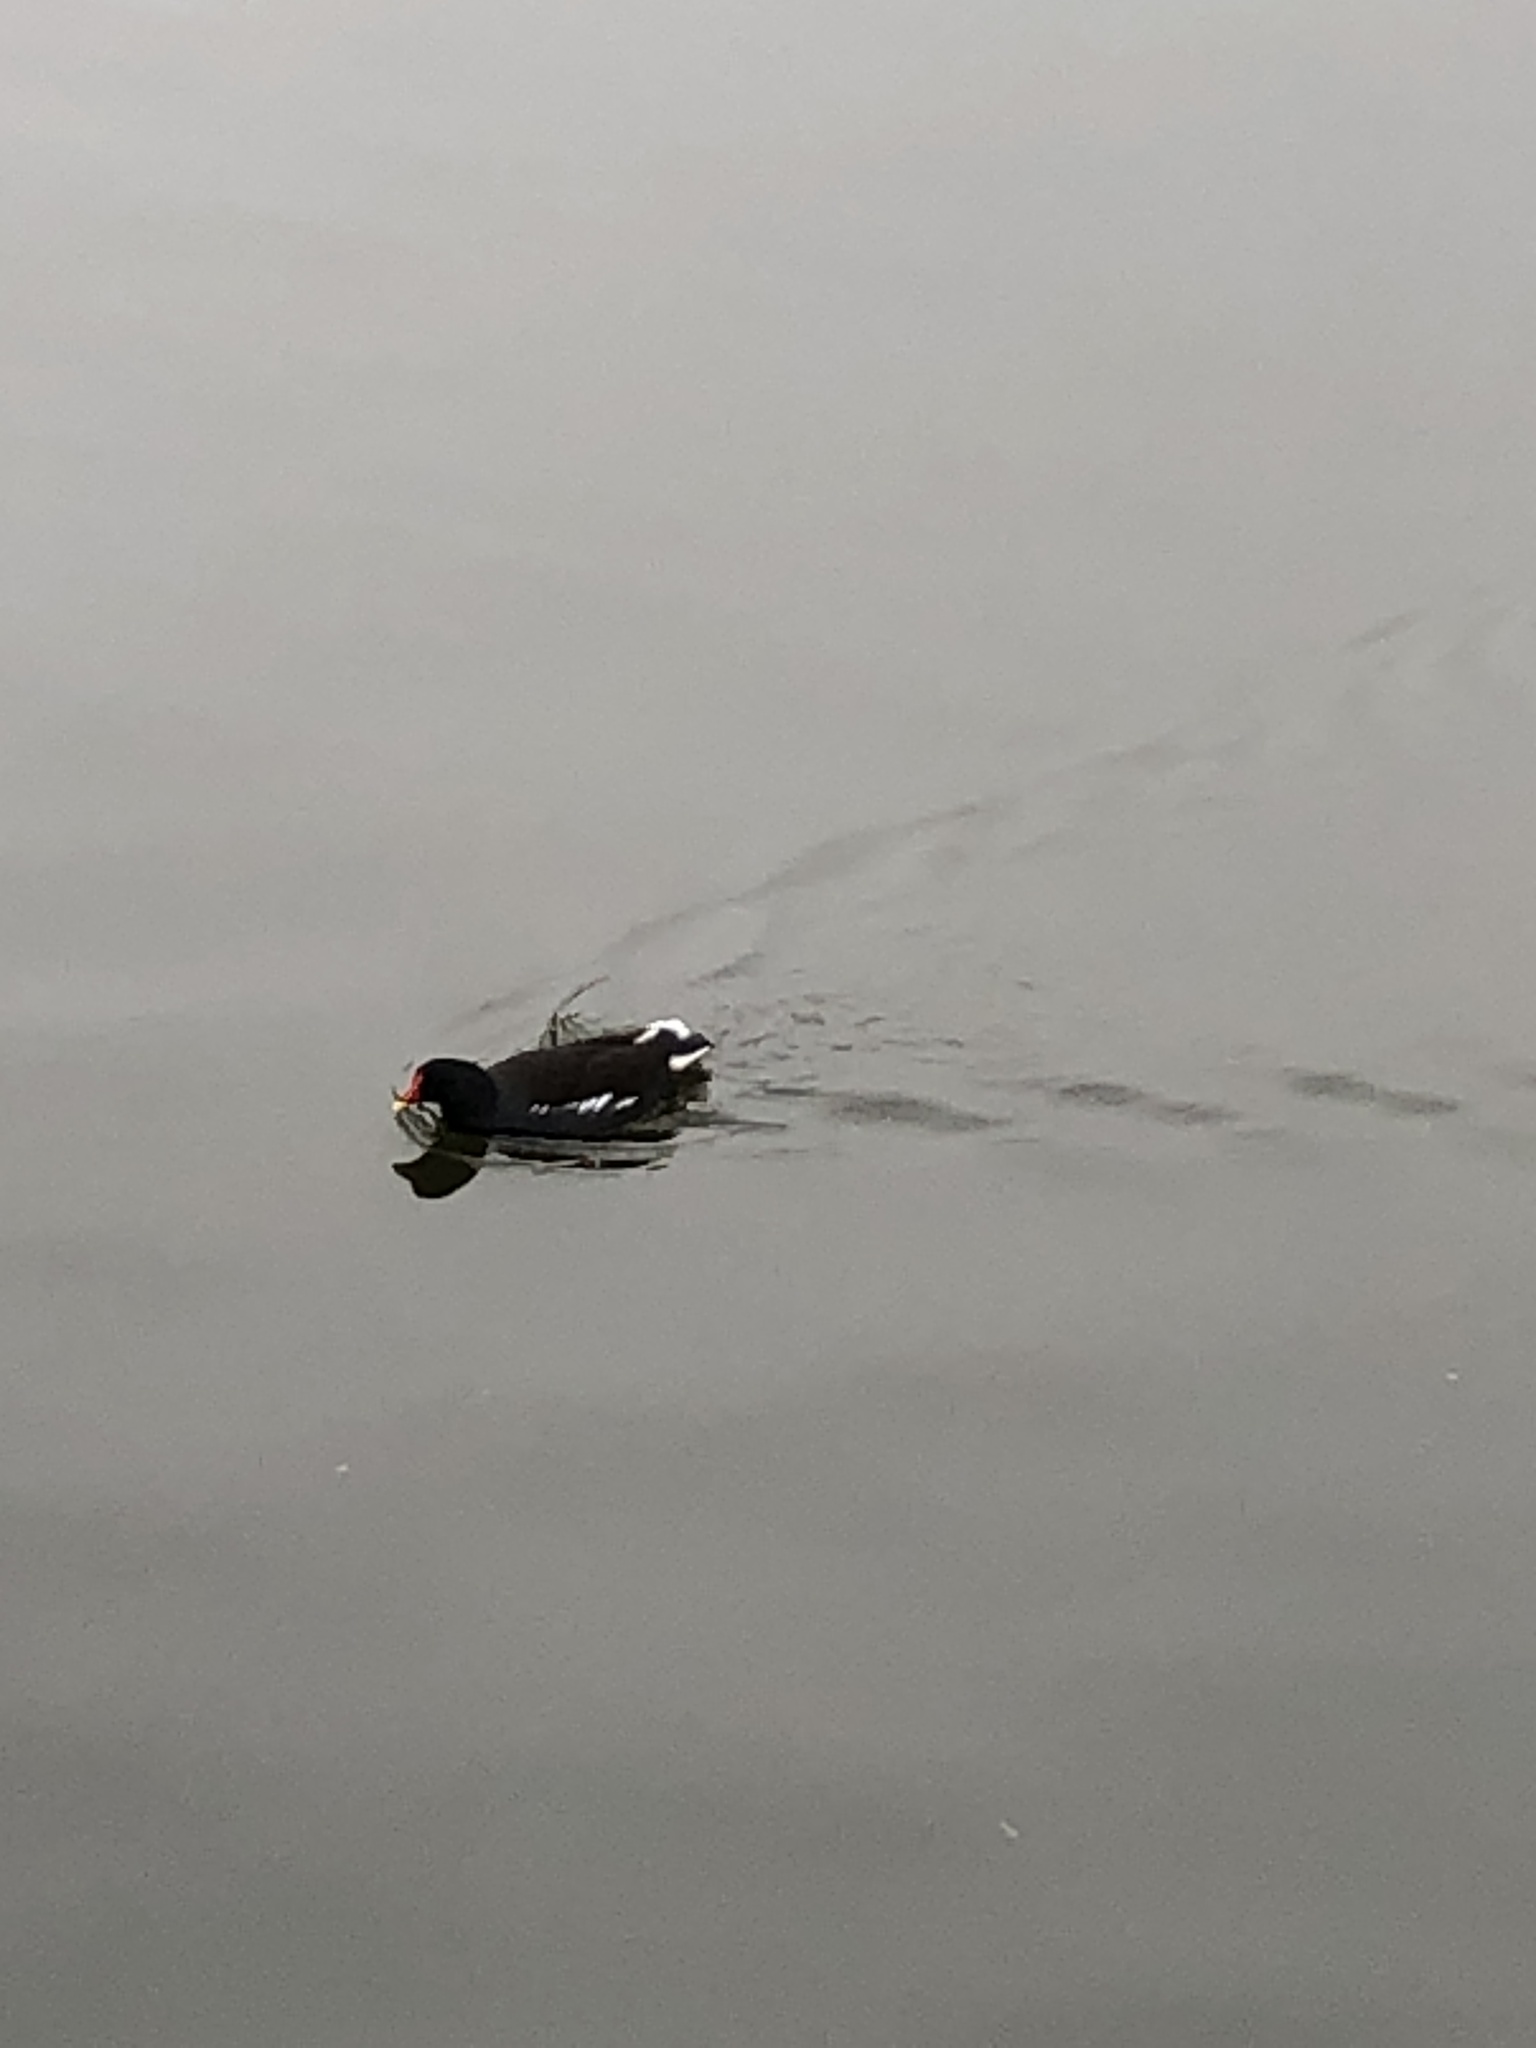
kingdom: Animalia
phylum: Chordata
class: Aves
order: Gruiformes
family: Rallidae
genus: Gallinula
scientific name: Gallinula chloropus
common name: Common moorhen
